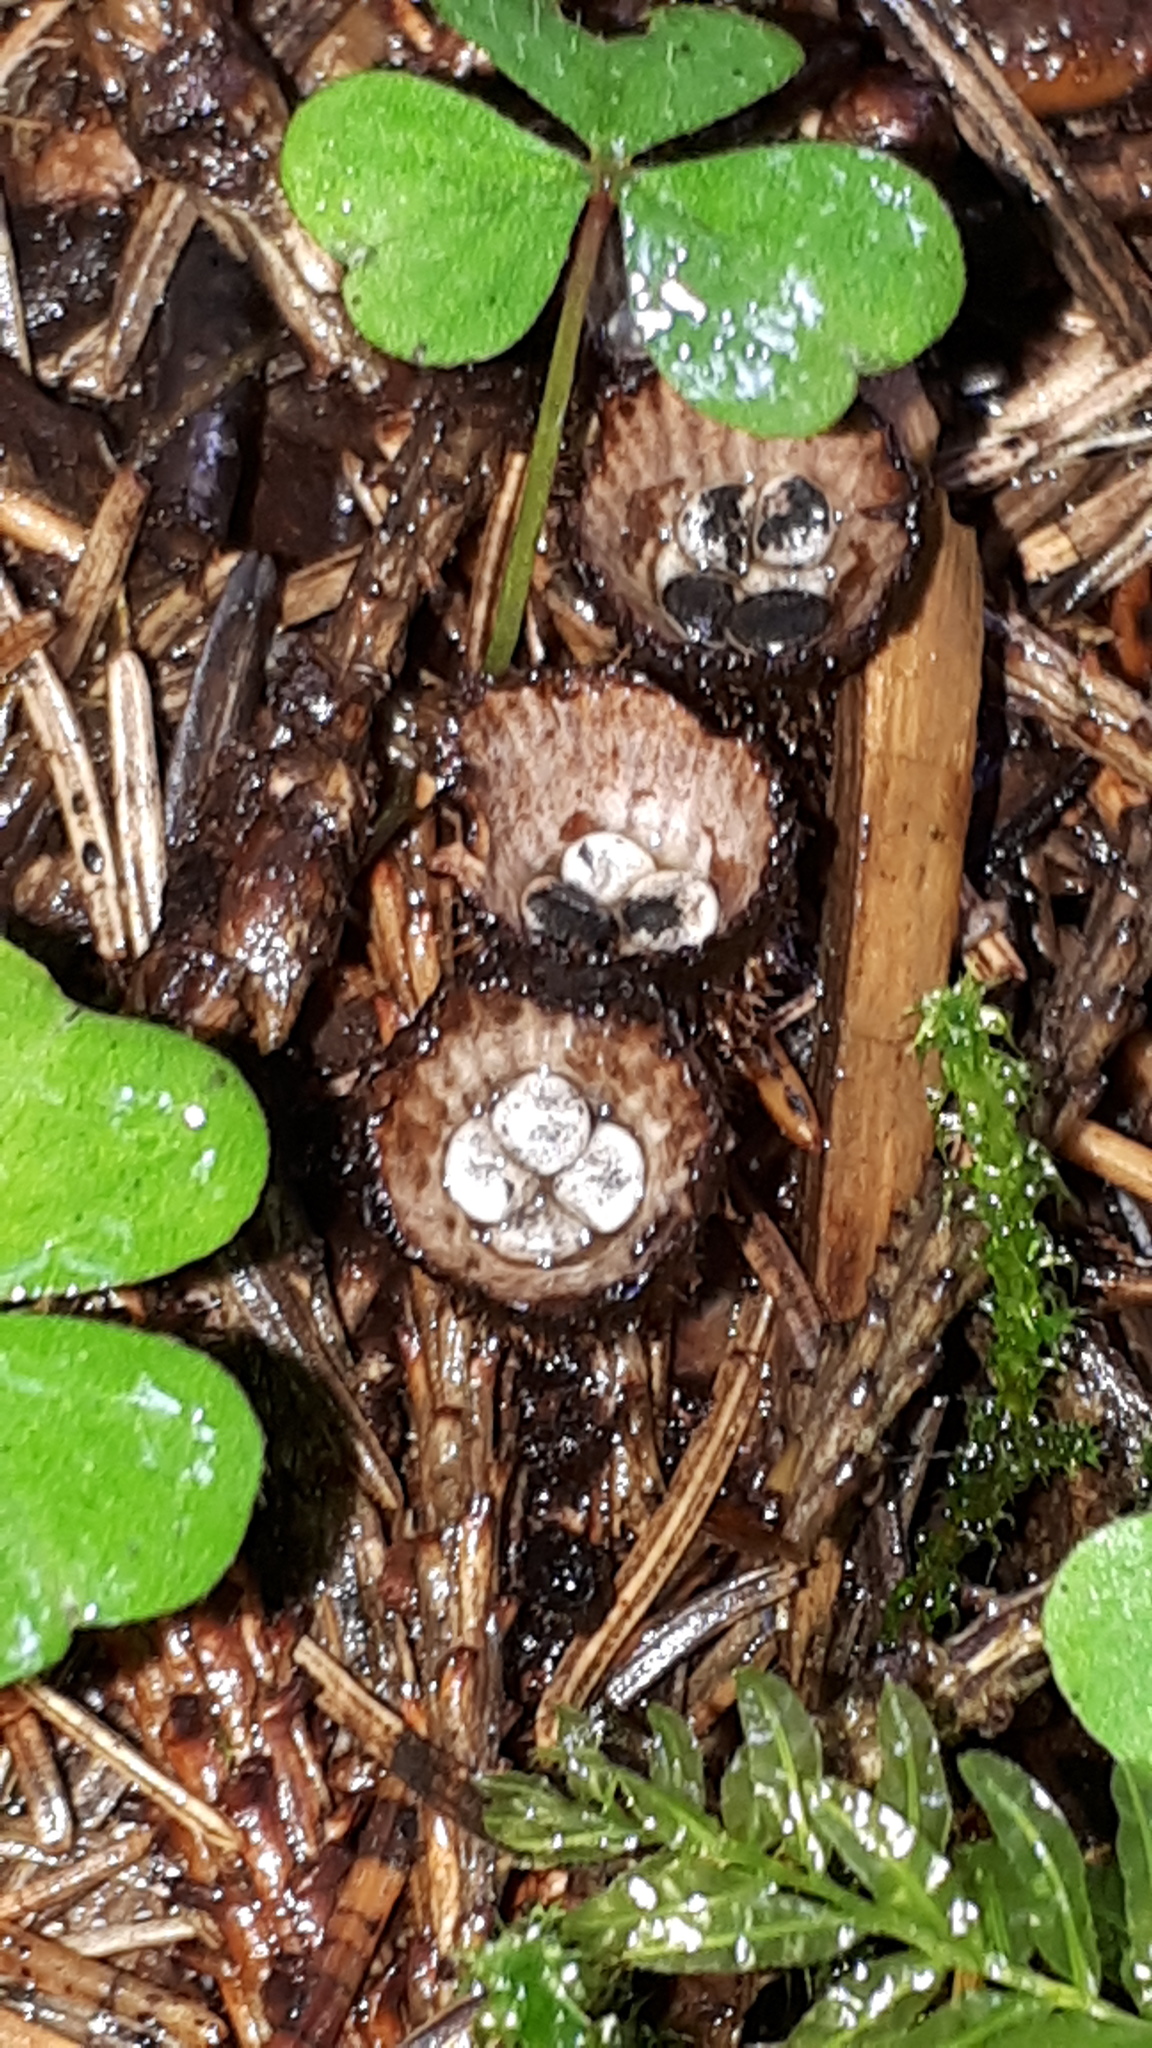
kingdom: Fungi
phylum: Basidiomycota
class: Agaricomycetes
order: Agaricales
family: Agaricaceae
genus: Cyathus
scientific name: Cyathus striatus
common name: Fluted bird's nest
